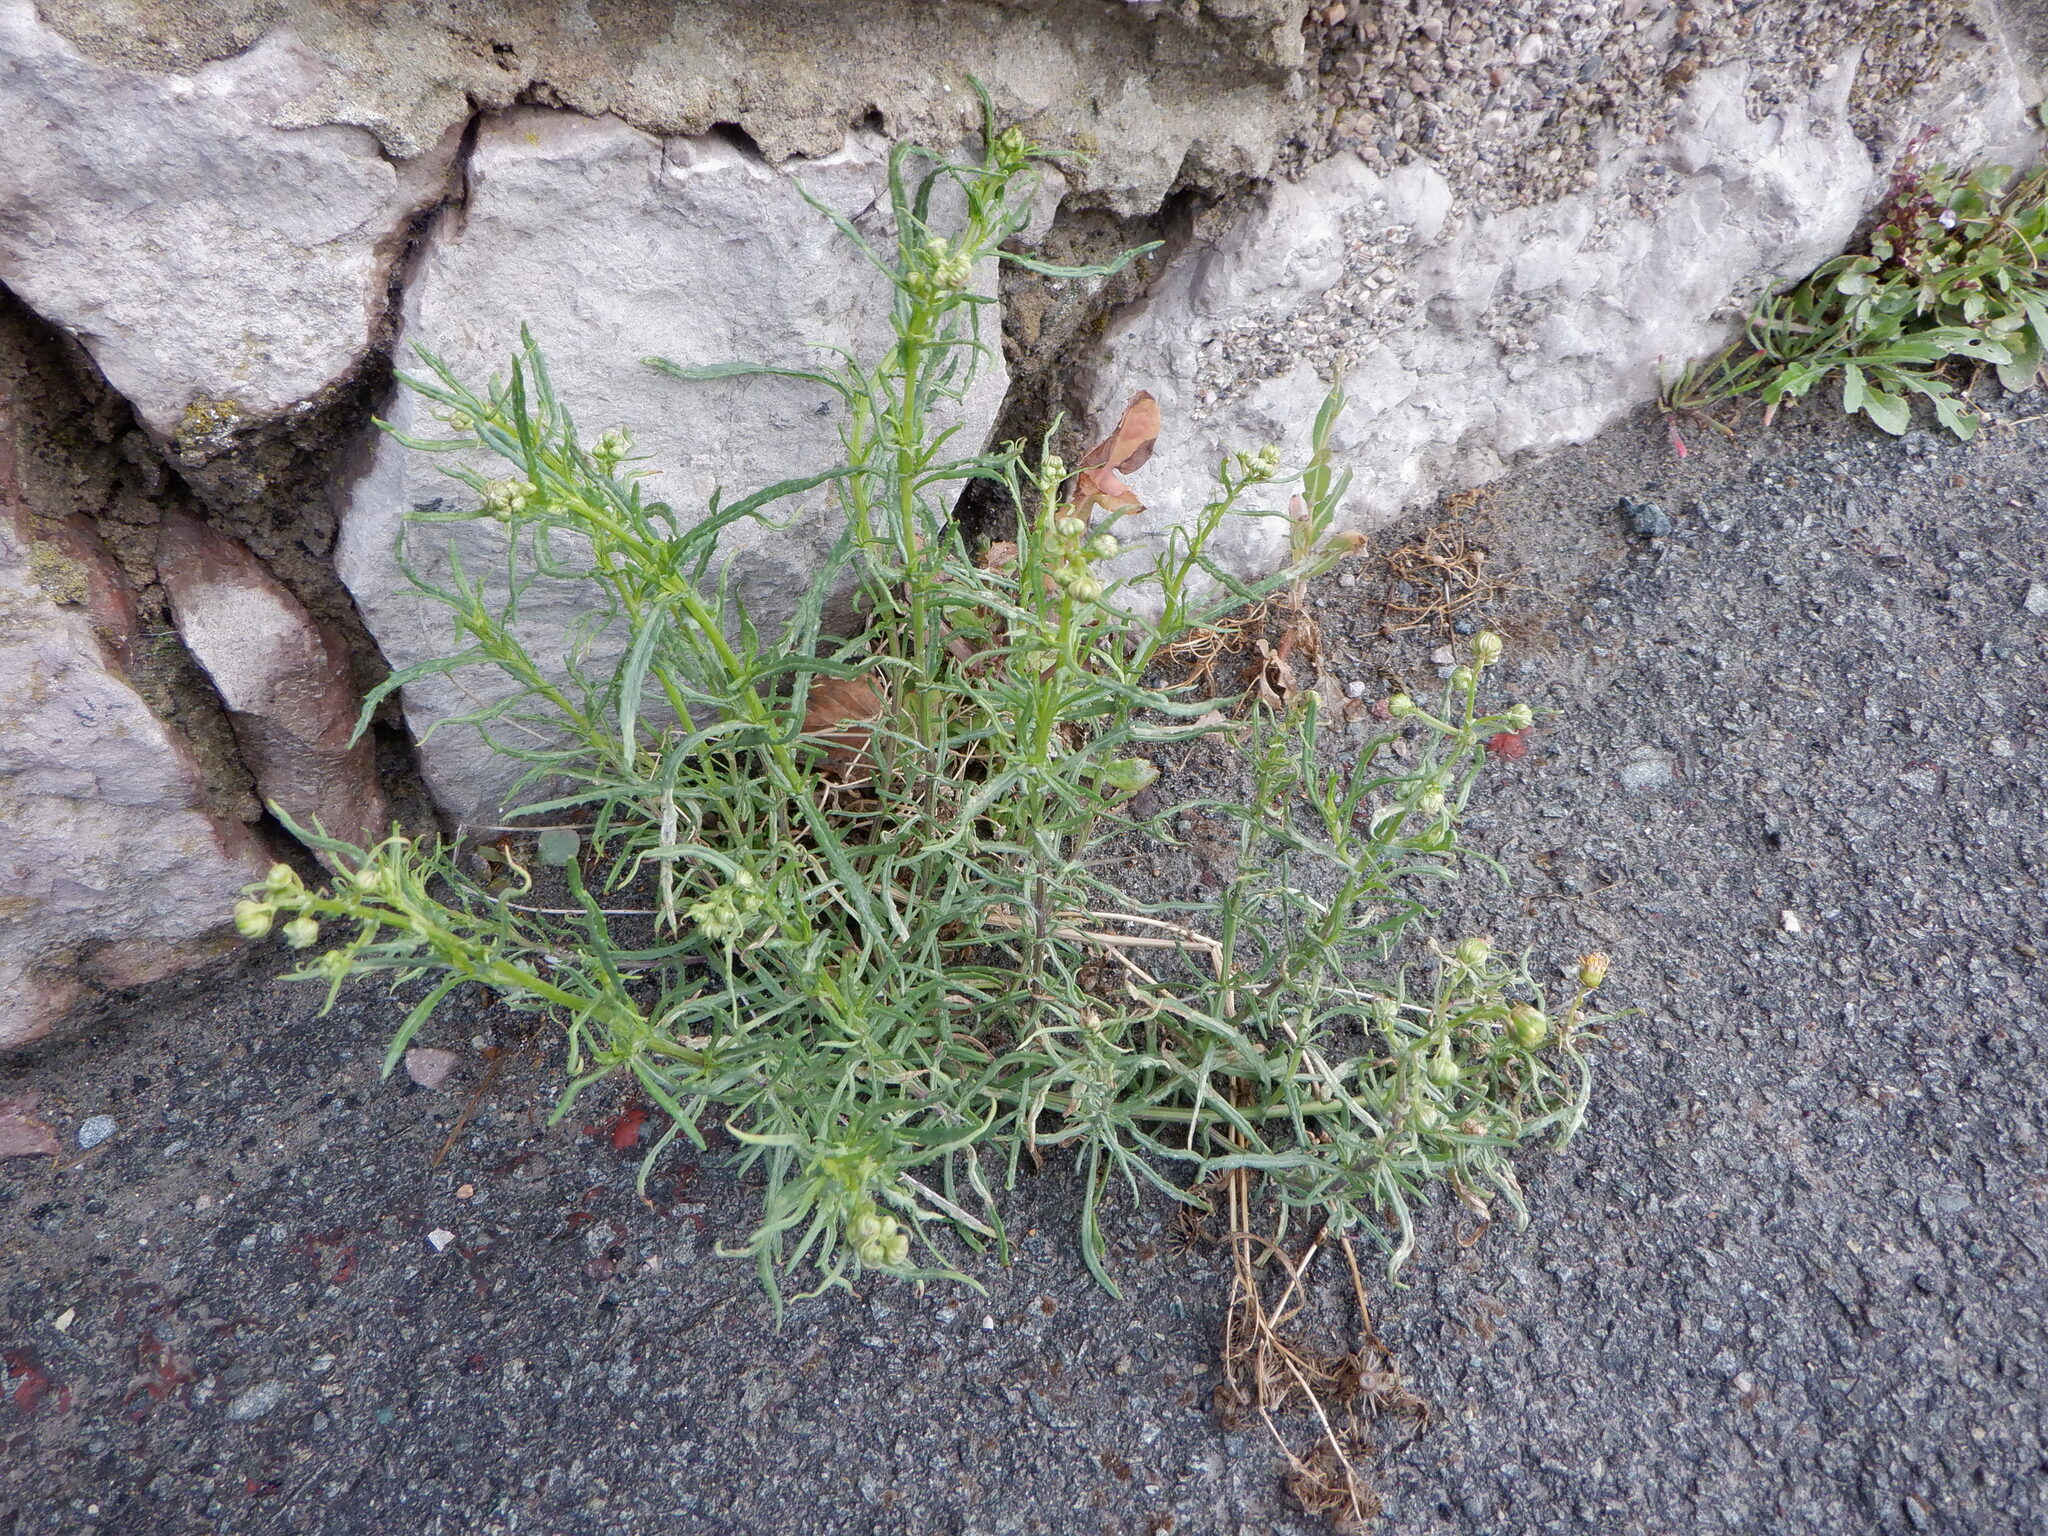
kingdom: Plantae
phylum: Tracheophyta
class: Magnoliopsida
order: Asterales
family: Asteraceae
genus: Senecio
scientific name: Senecio inaequidens
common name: Narrow-leaved ragwort
